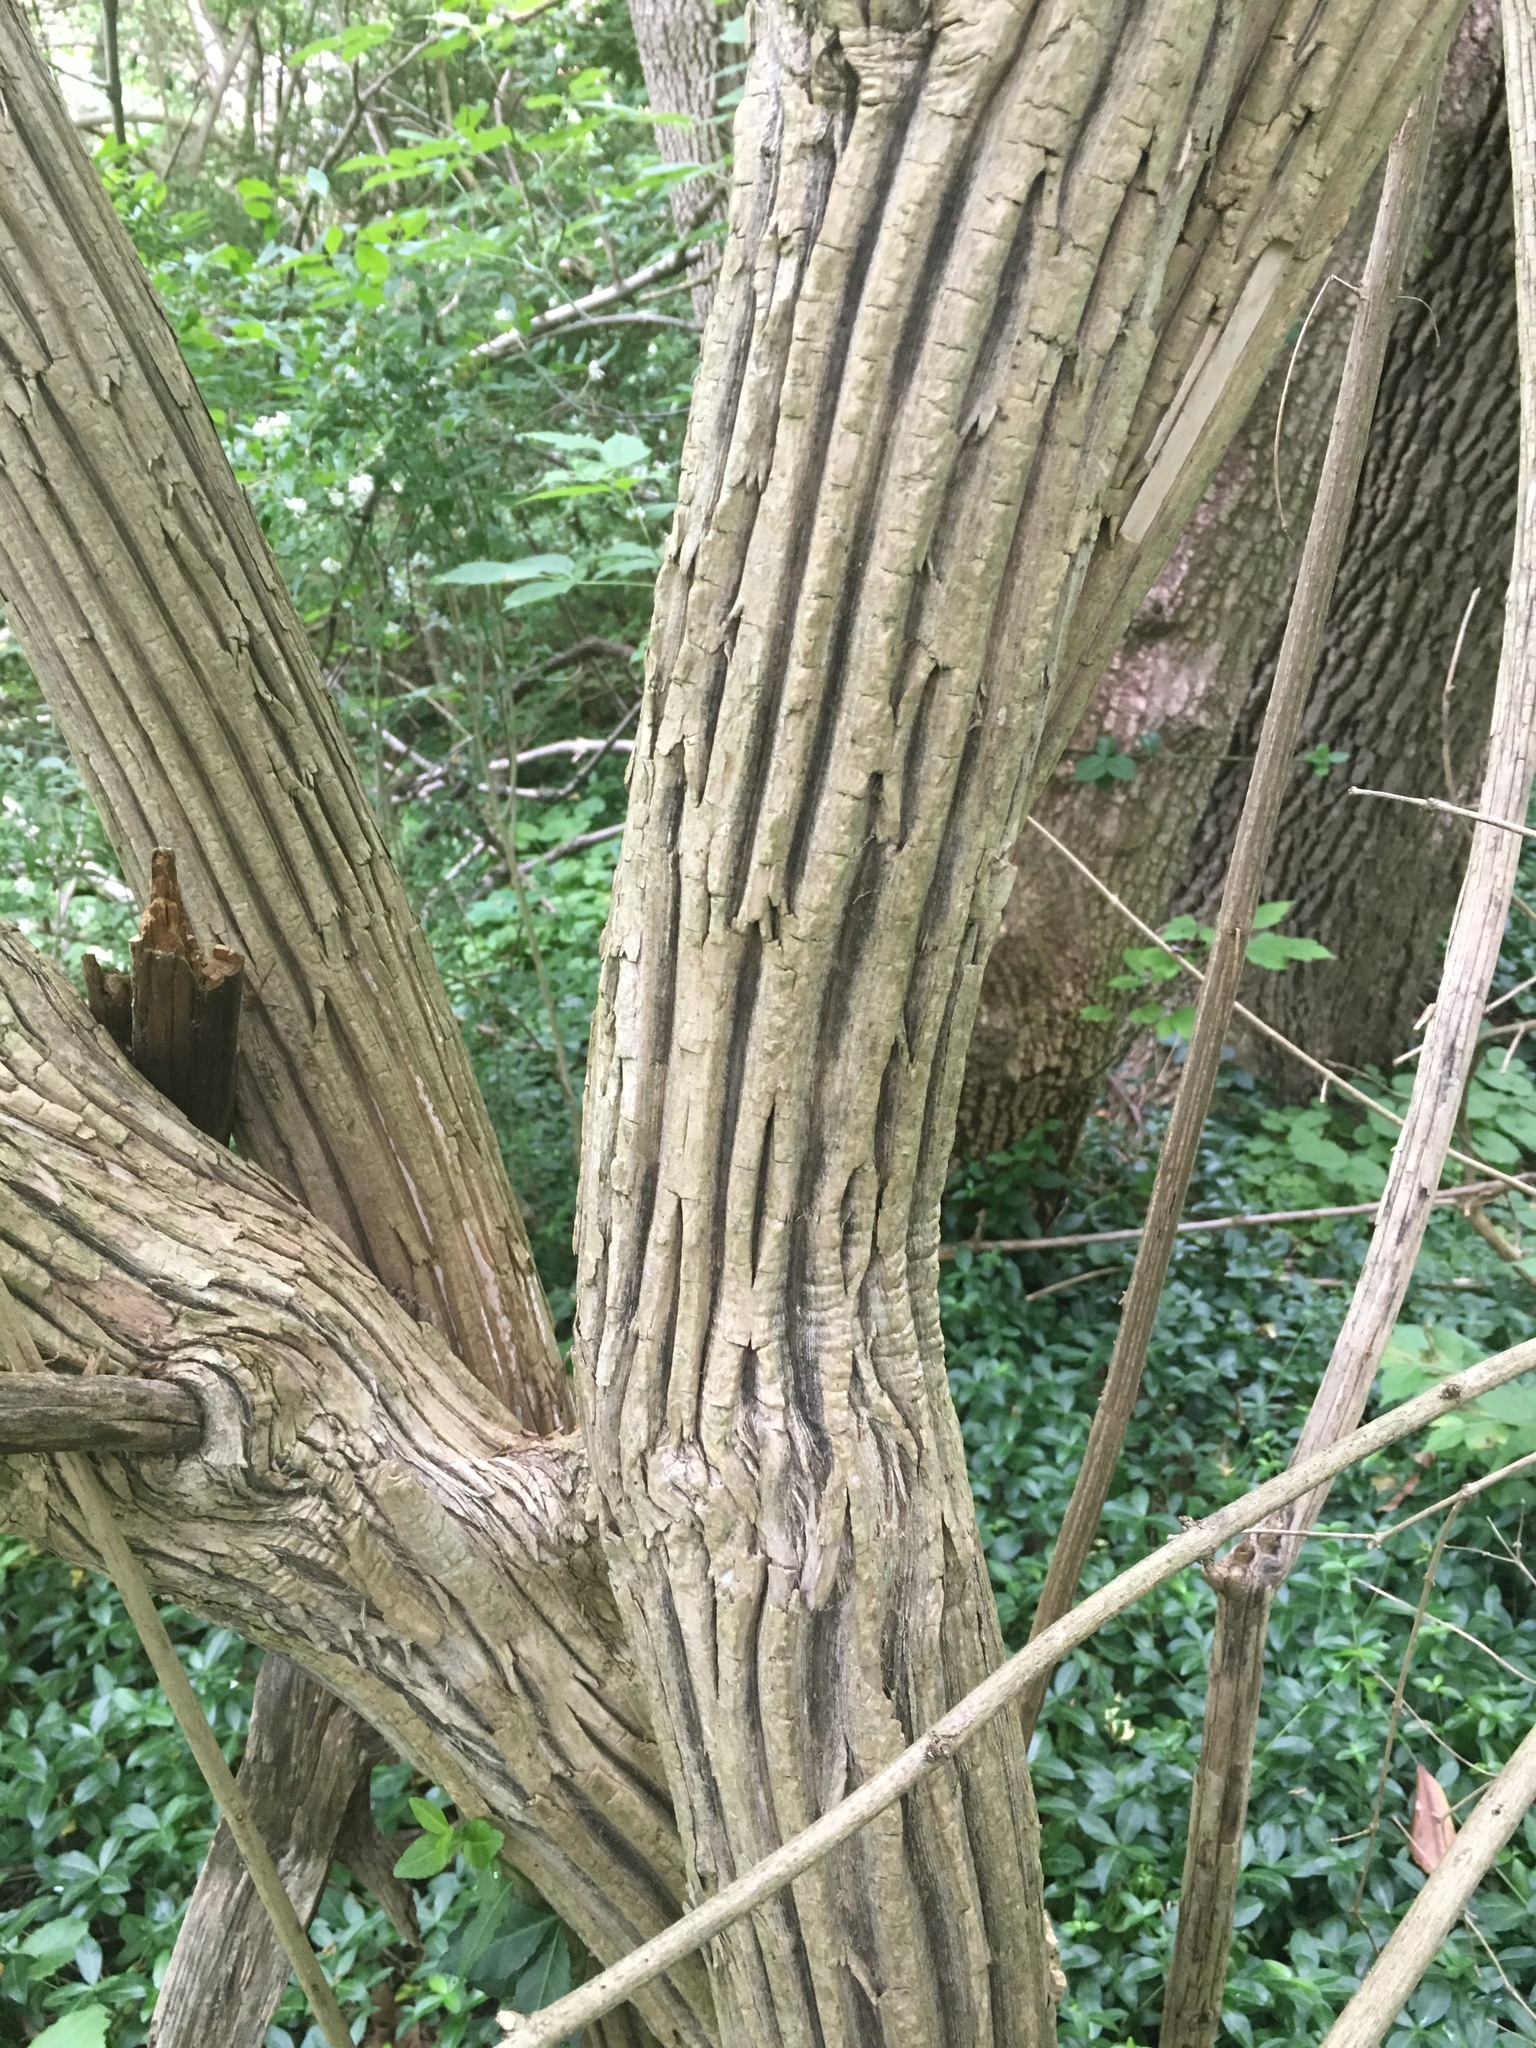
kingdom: Plantae
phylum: Tracheophyta
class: Magnoliopsida
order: Dipsacales
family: Caprifoliaceae
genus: Lonicera
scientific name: Lonicera maackii
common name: Amur honeysuckle
